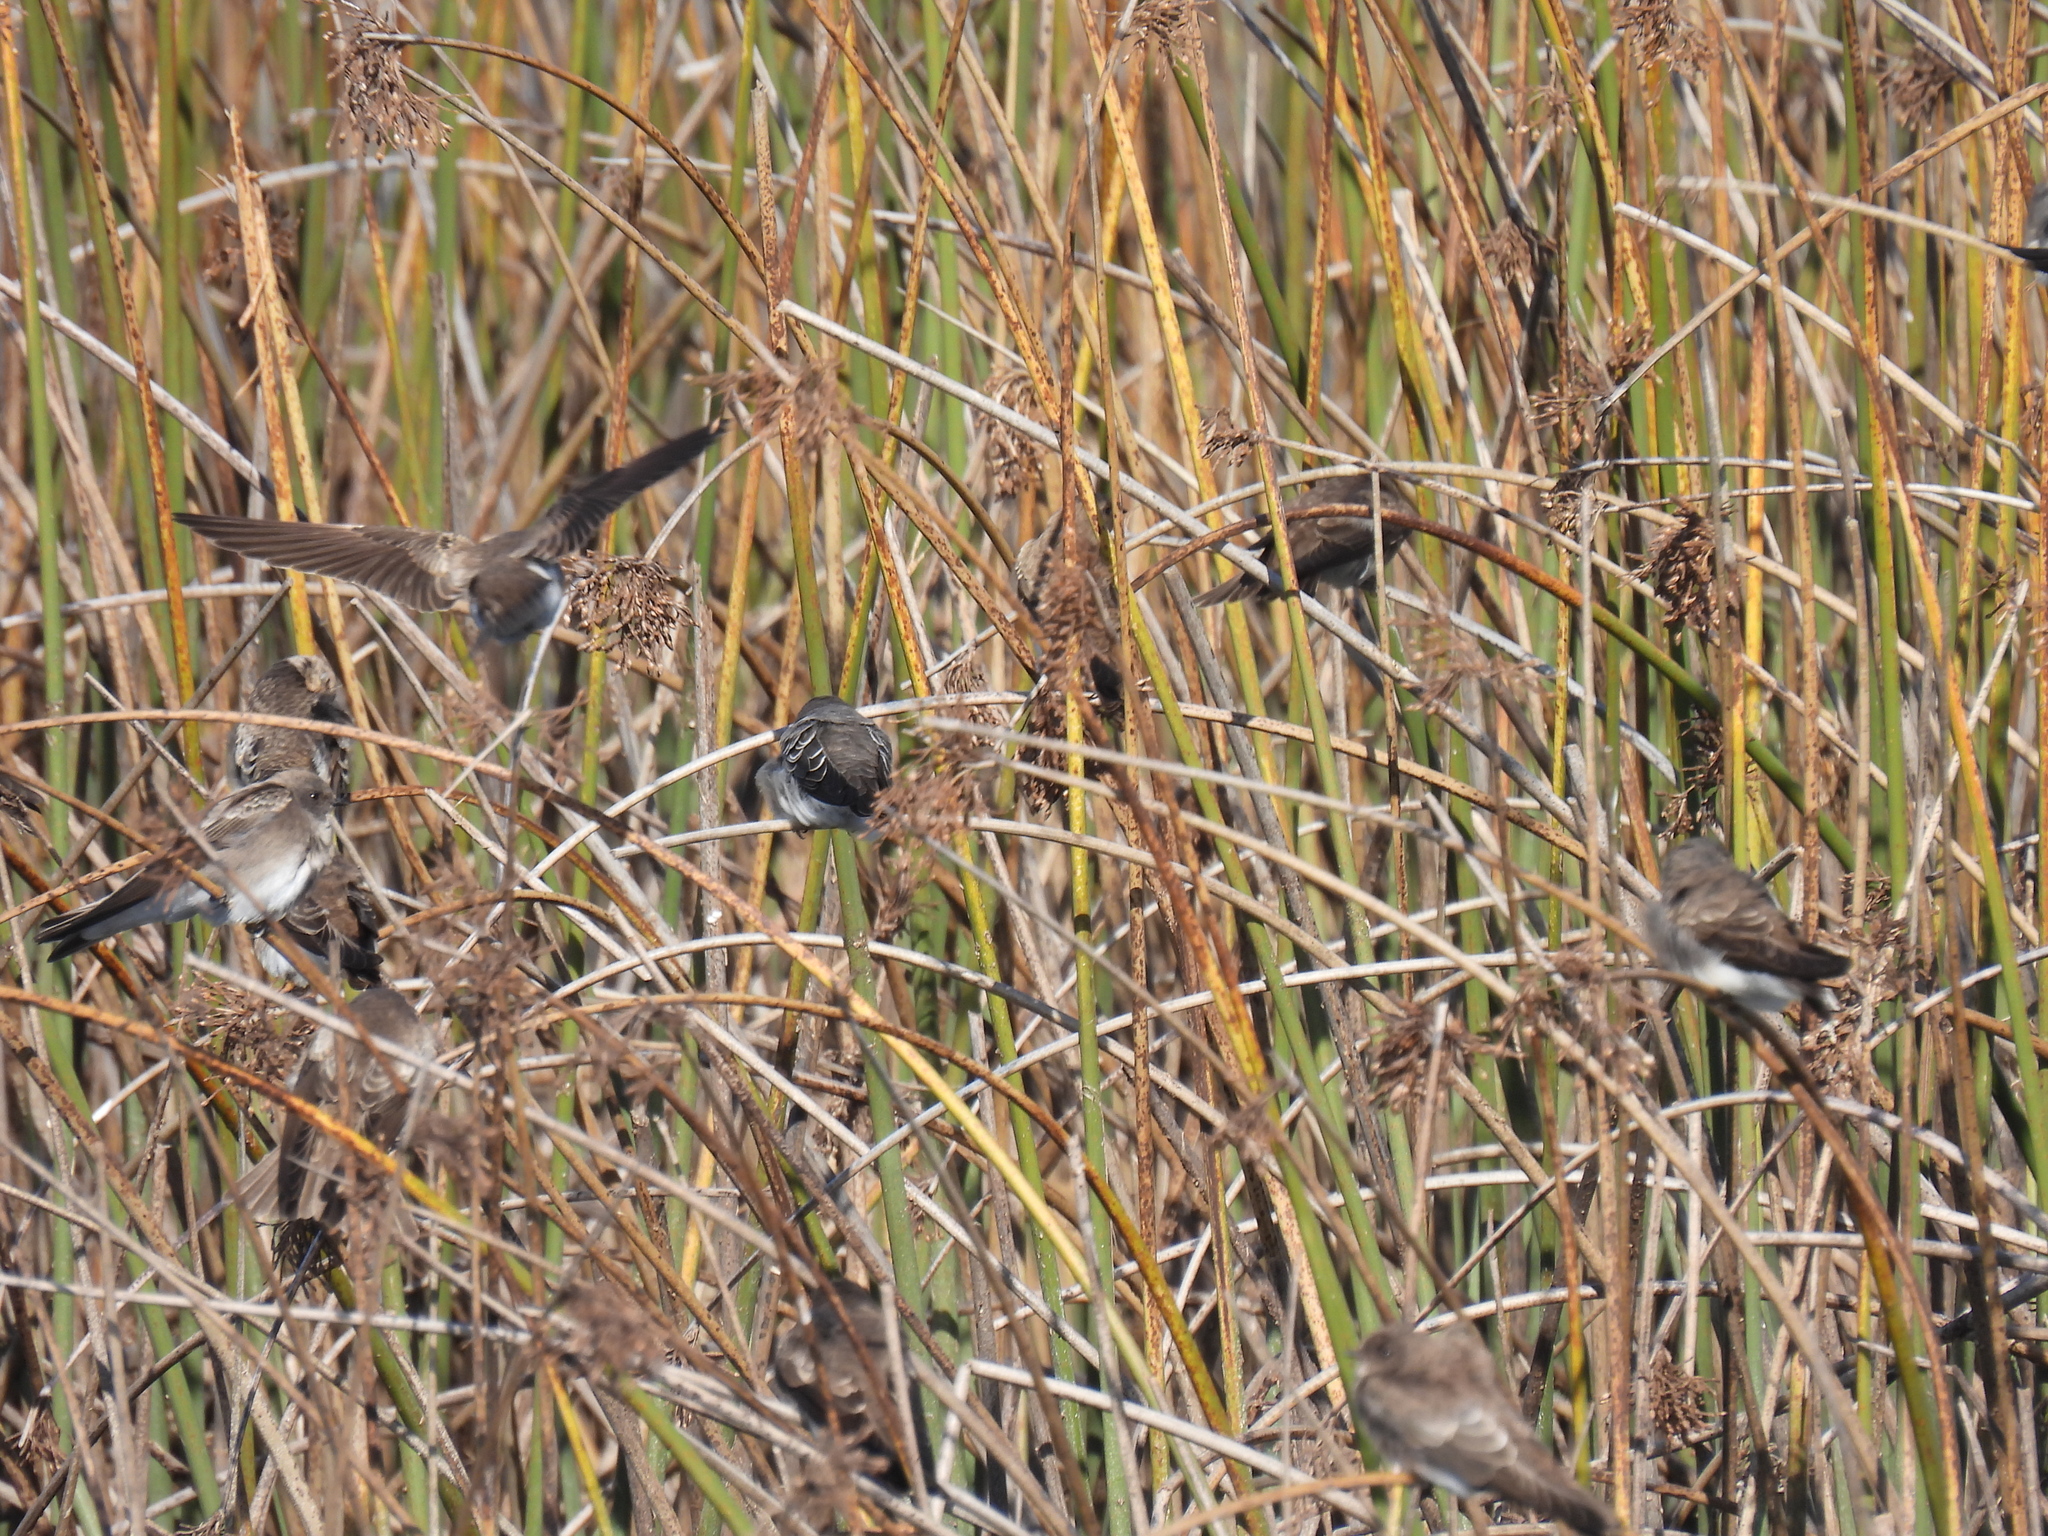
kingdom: Animalia
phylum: Chordata
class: Aves
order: Passeriformes
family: Hirundinidae
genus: Riparia
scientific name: Riparia paludicola
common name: Brown-throated martin
